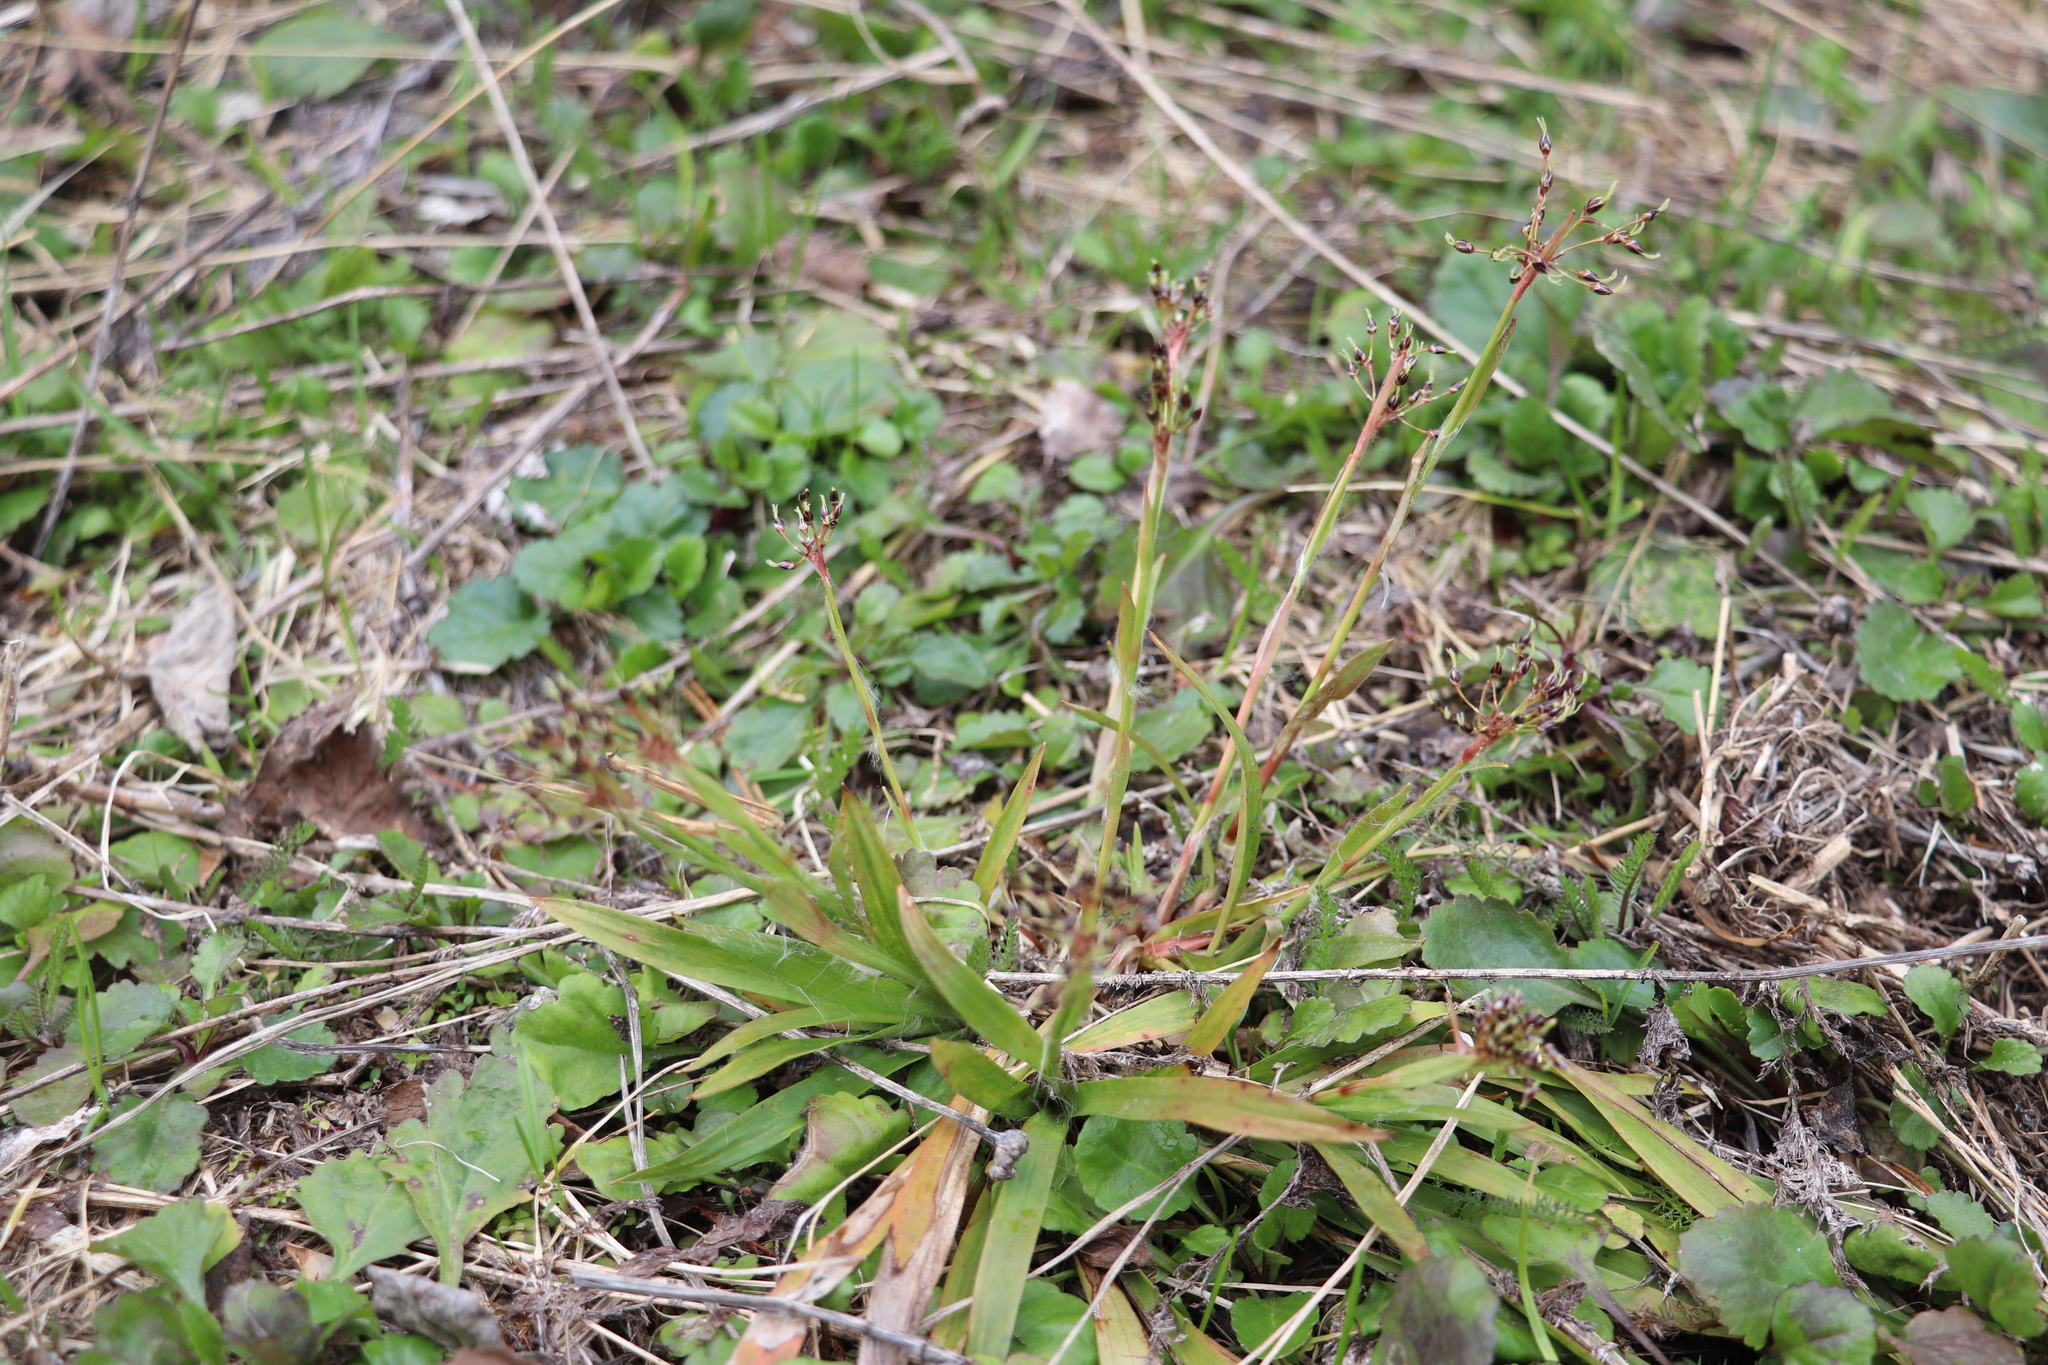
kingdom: Plantae
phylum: Tracheophyta
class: Liliopsida
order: Poales
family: Juncaceae
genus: Luzula
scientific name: Luzula pilosa
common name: Hairy wood-rush
